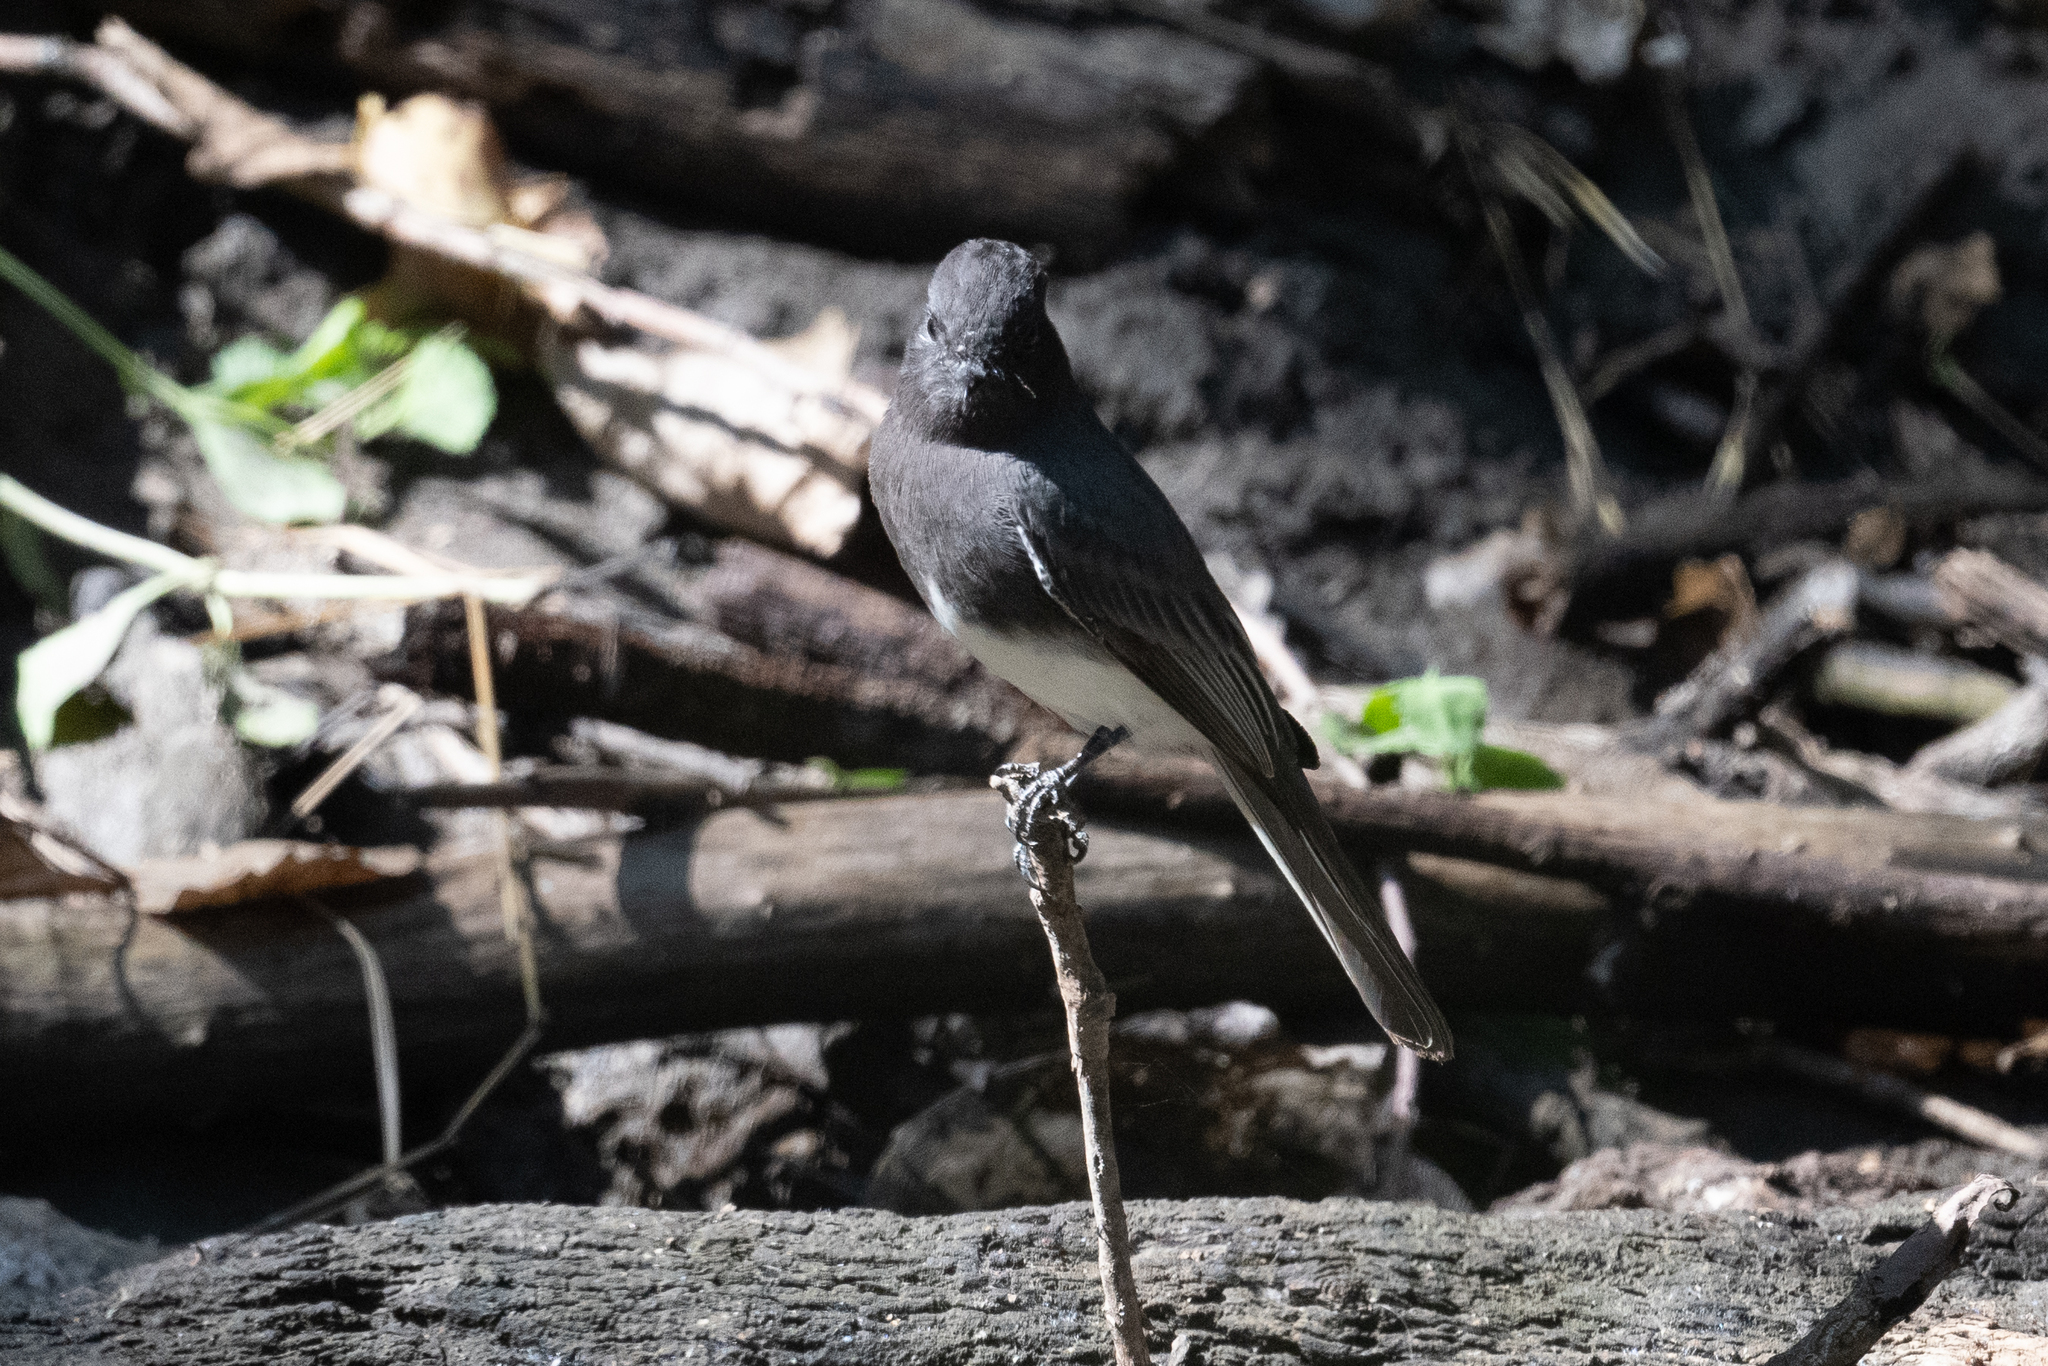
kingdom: Animalia
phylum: Chordata
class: Aves
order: Passeriformes
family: Tyrannidae
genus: Sayornis
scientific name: Sayornis nigricans
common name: Black phoebe
